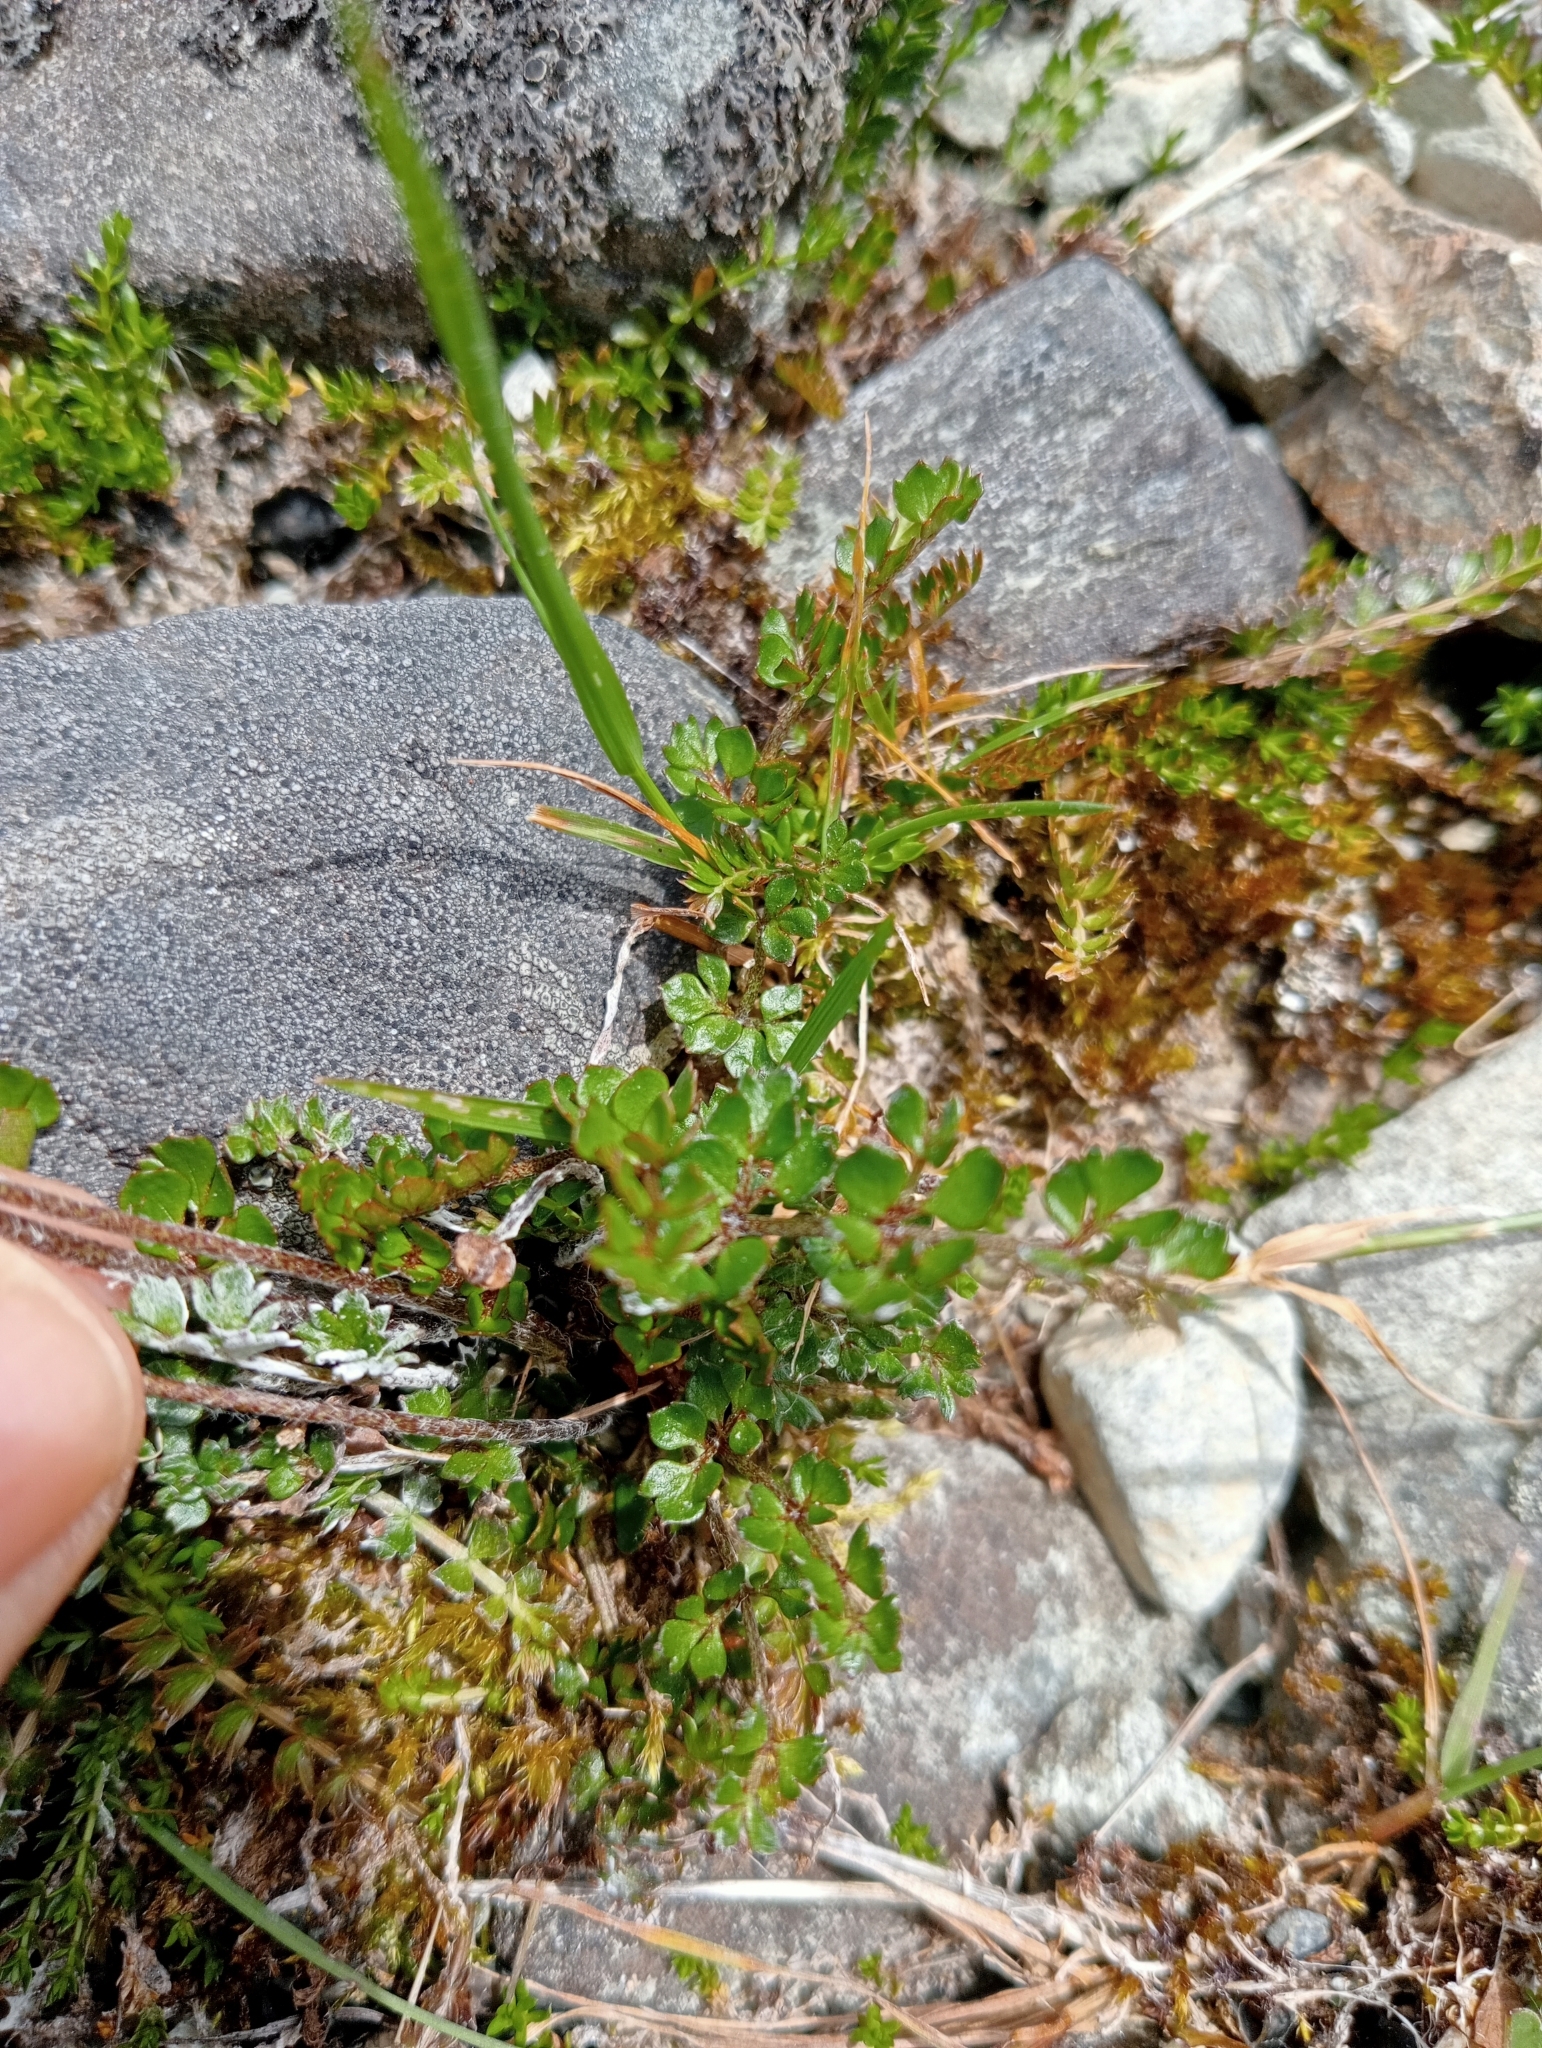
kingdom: Plantae
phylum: Tracheophyta
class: Magnoliopsida
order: Ranunculales
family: Ranunculaceae
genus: Ranunculus
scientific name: Ranunculus gracilipes
